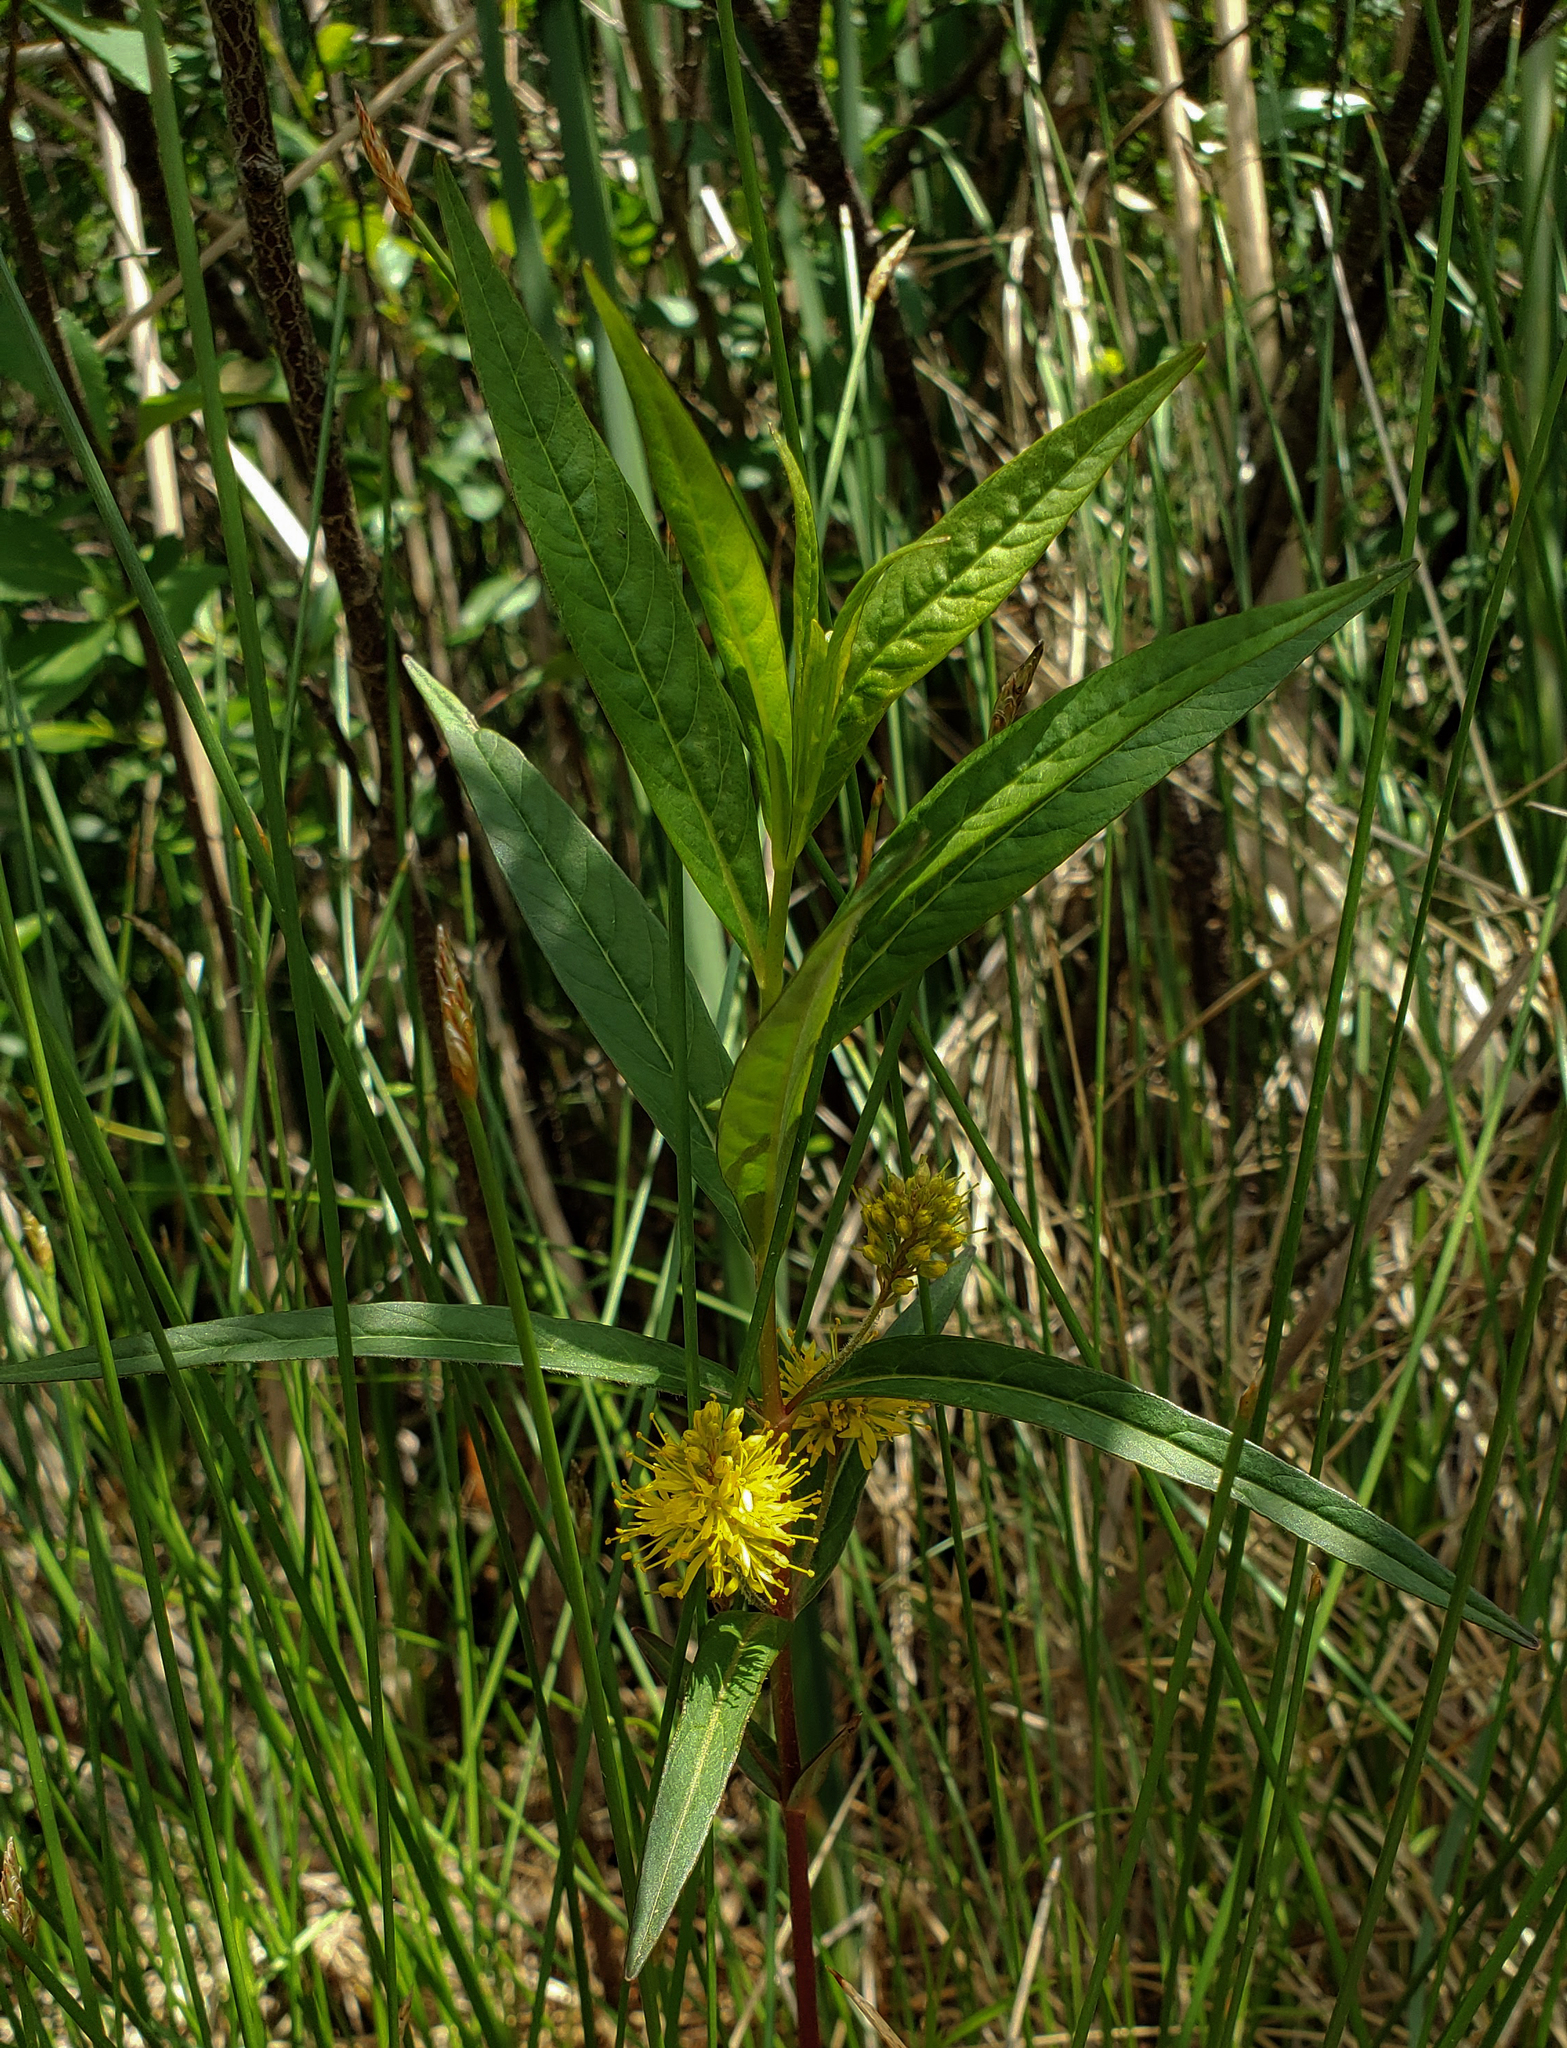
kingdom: Plantae
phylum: Tracheophyta
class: Magnoliopsida
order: Ericales
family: Primulaceae
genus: Lysimachia
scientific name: Lysimachia thyrsiflora
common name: Tufted loosestrife
